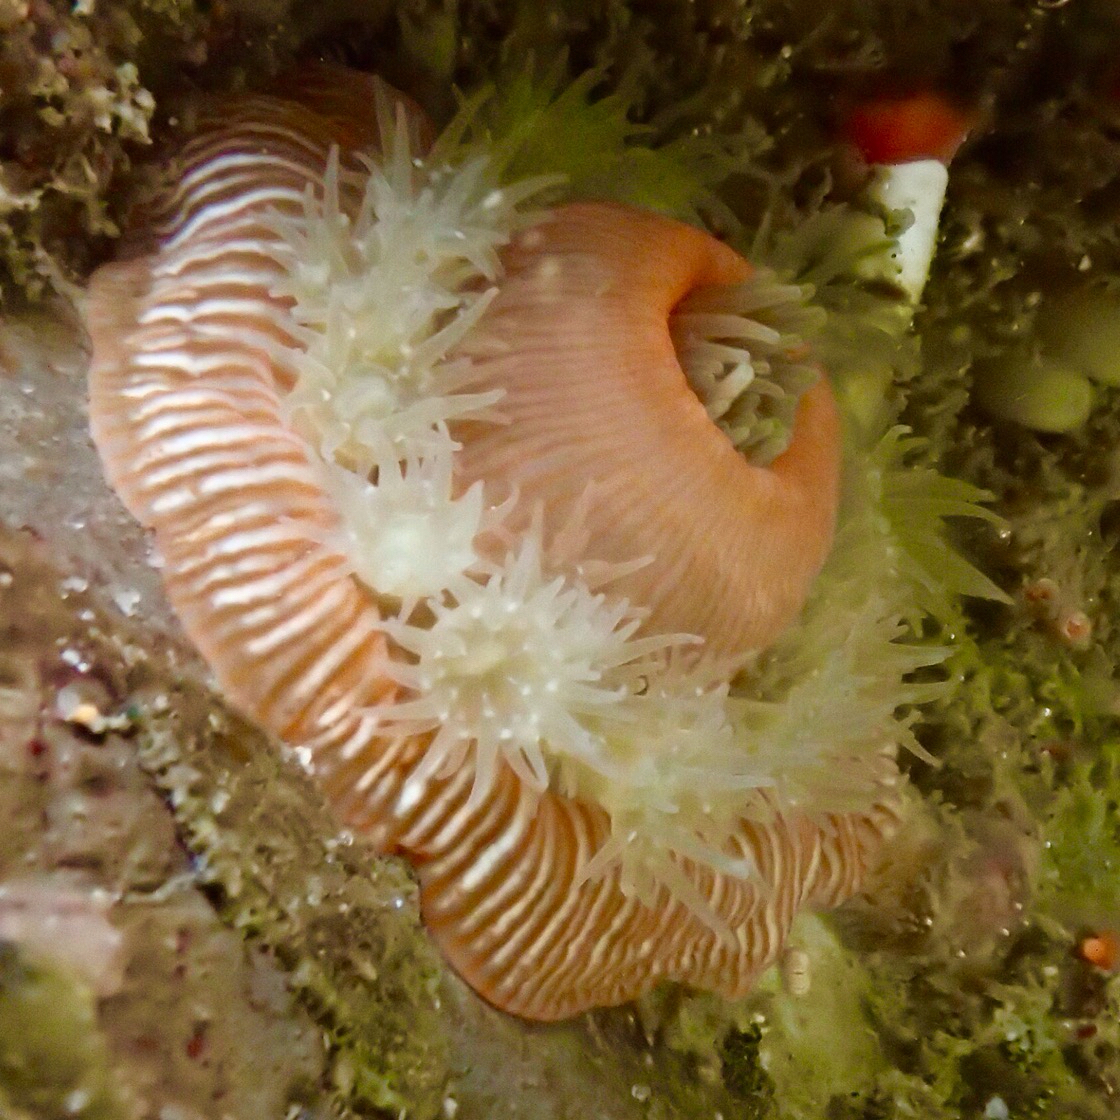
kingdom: Animalia
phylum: Cnidaria
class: Anthozoa
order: Actiniaria
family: Actiniidae
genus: Epiactis
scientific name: Epiactis prolifera
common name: Brooding anemone
